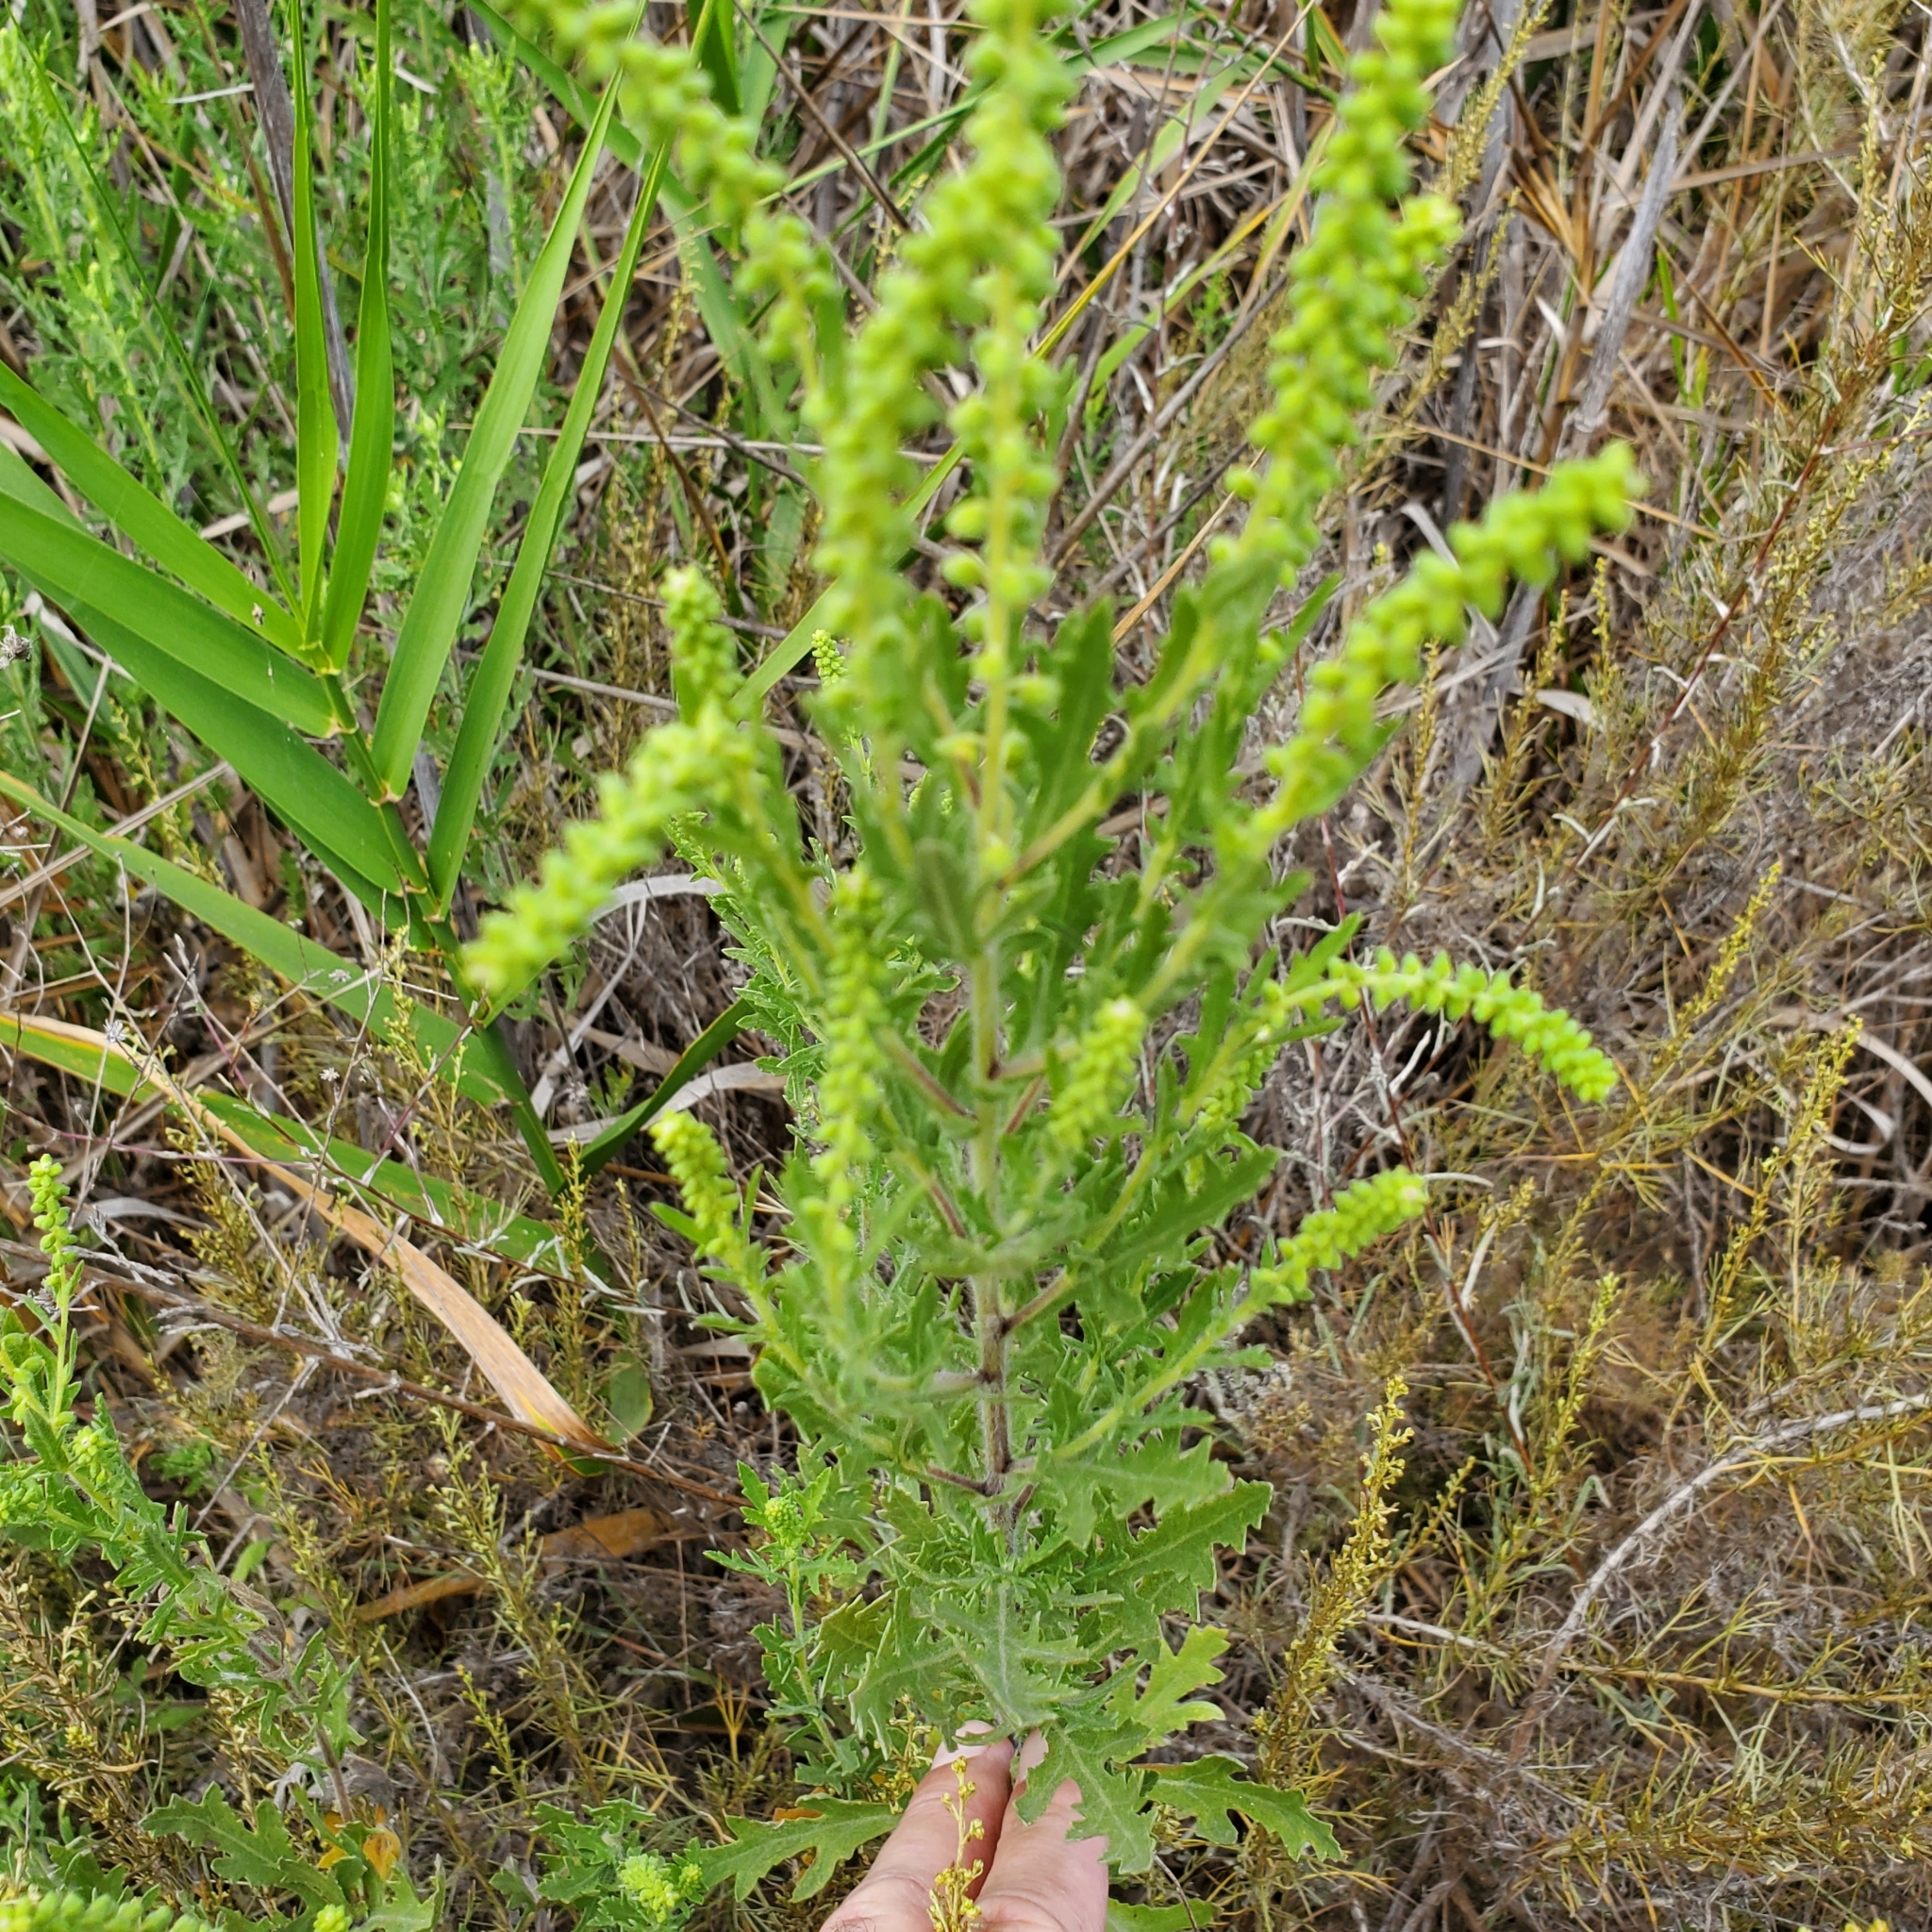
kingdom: Plantae
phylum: Tracheophyta
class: Magnoliopsida
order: Asterales
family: Asteraceae
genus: Ambrosia
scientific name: Ambrosia psilostachya
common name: Perennial ragweed
